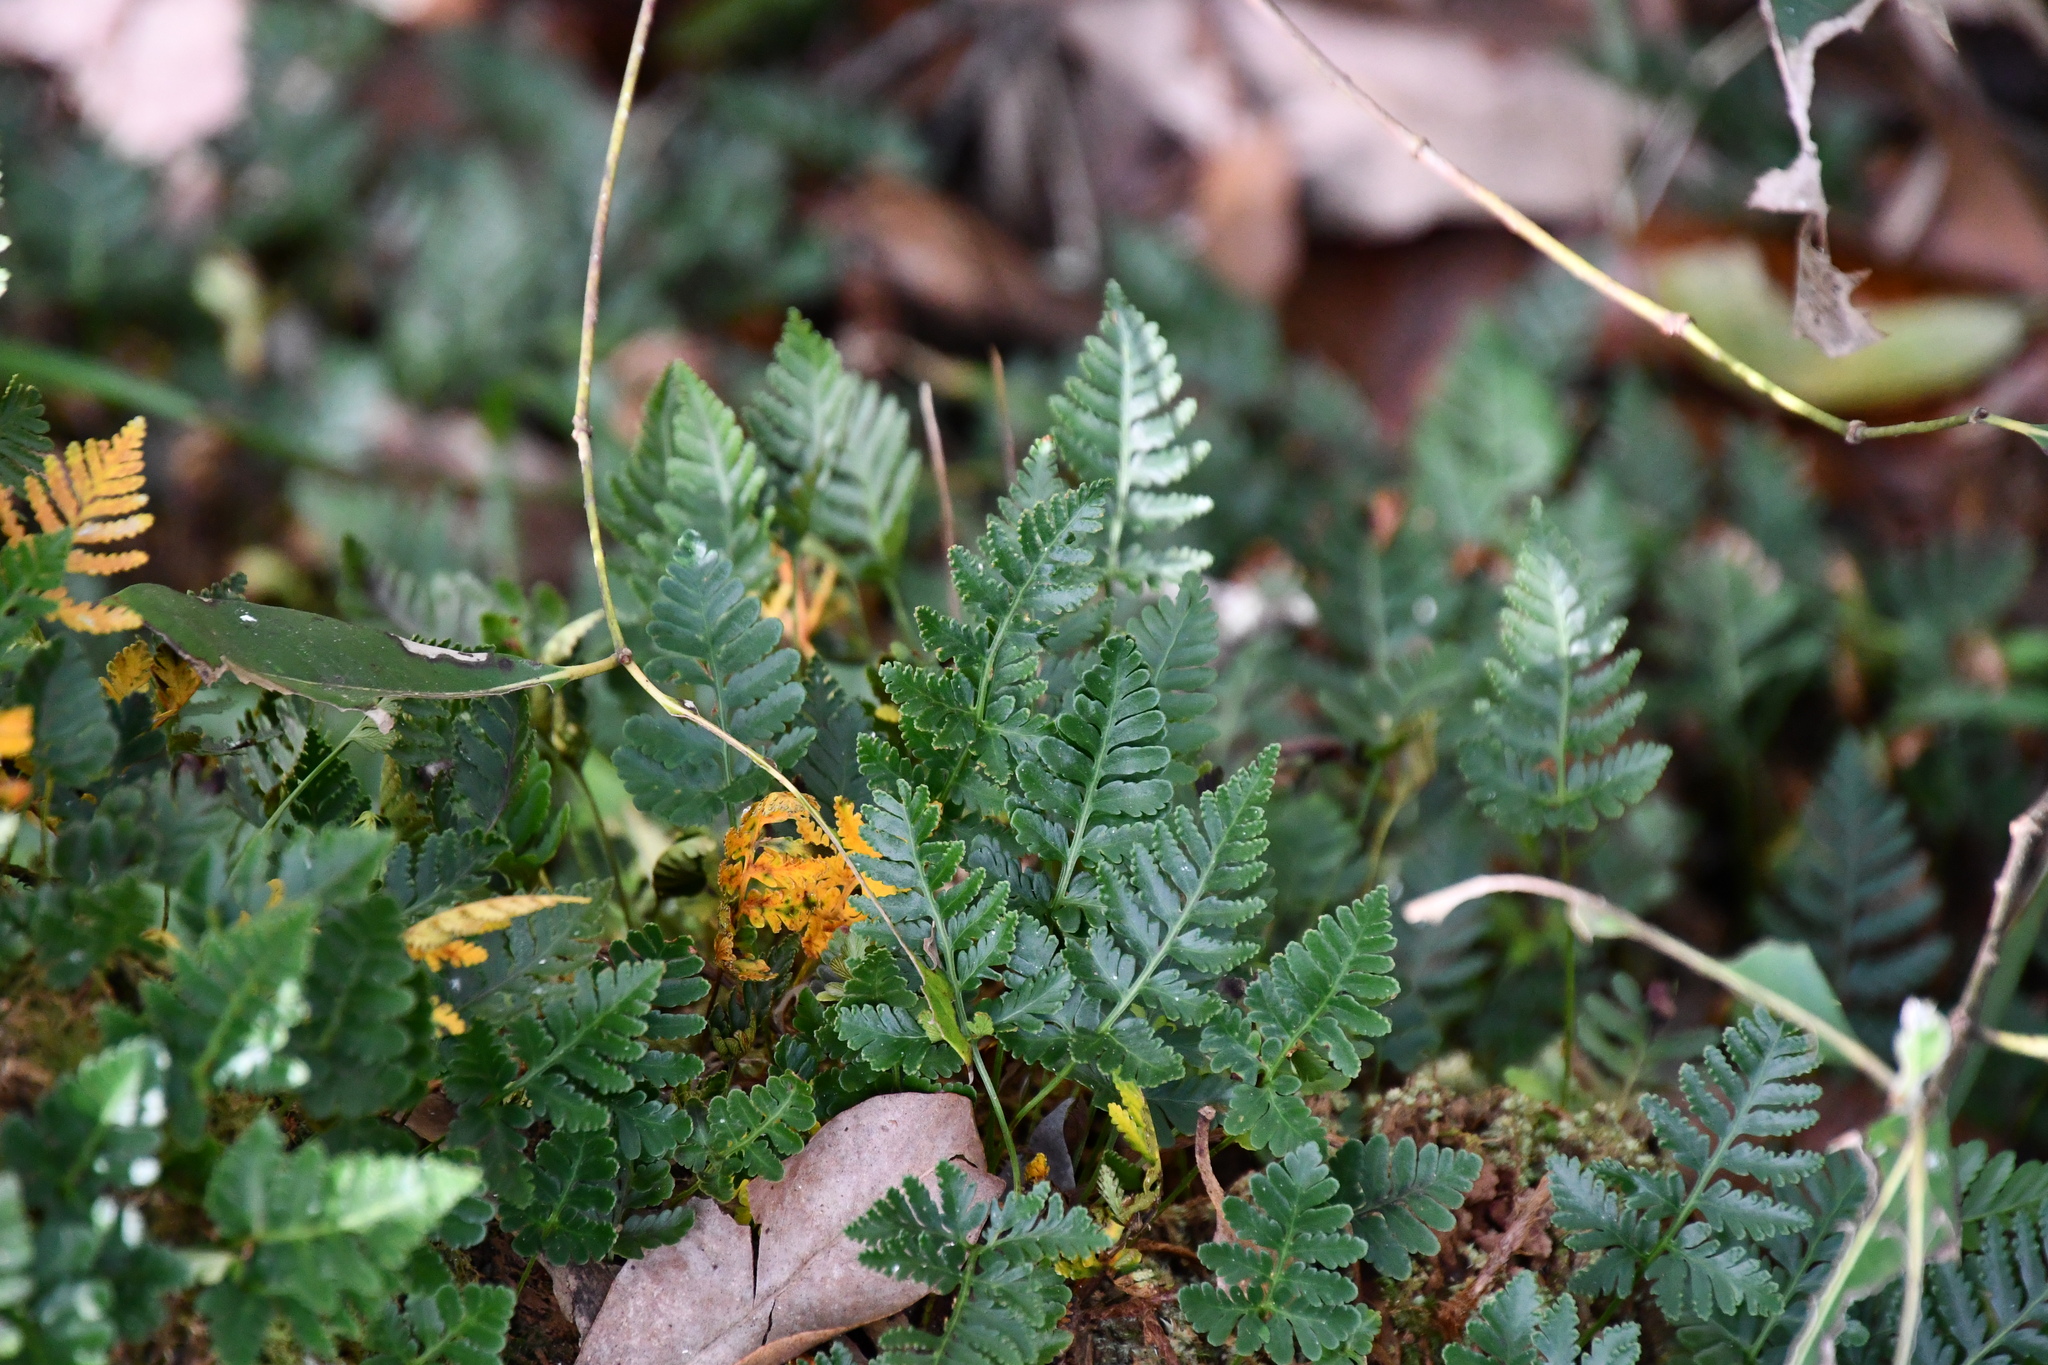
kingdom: Plantae
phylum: Tracheophyta
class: Polypodiopsida
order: Polypodiales
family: Davalliaceae
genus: Davallia
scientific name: Davallia repens
